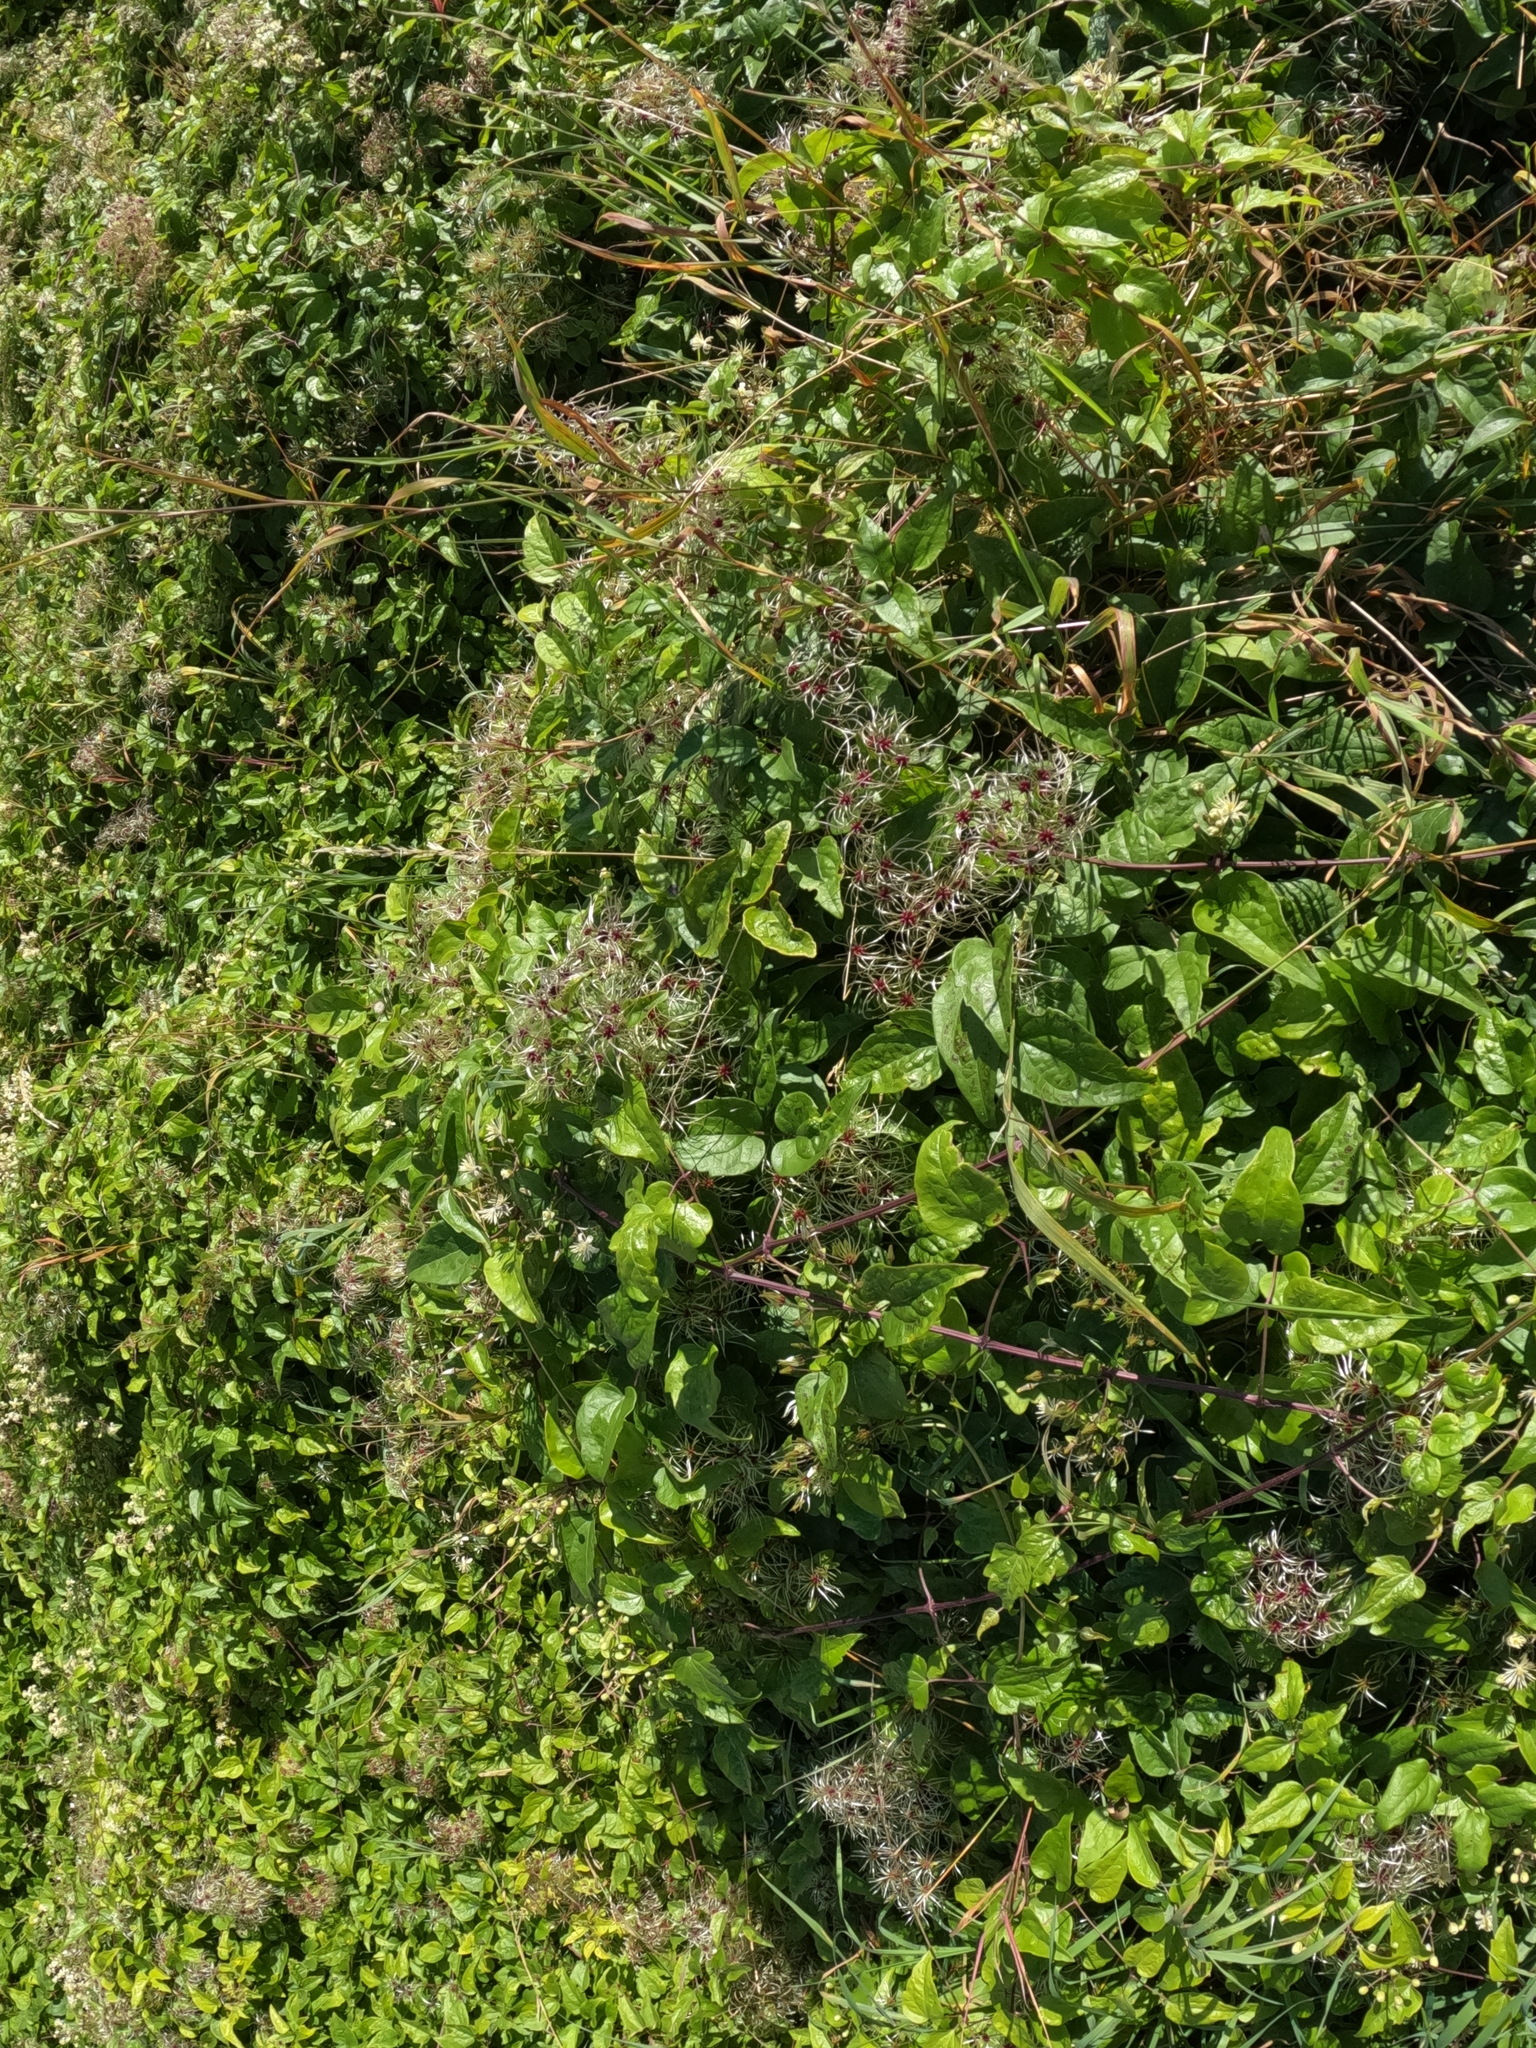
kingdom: Plantae
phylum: Tracheophyta
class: Magnoliopsida
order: Ranunculales
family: Ranunculaceae
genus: Clematis
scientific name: Clematis vitalba
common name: Evergreen clematis
